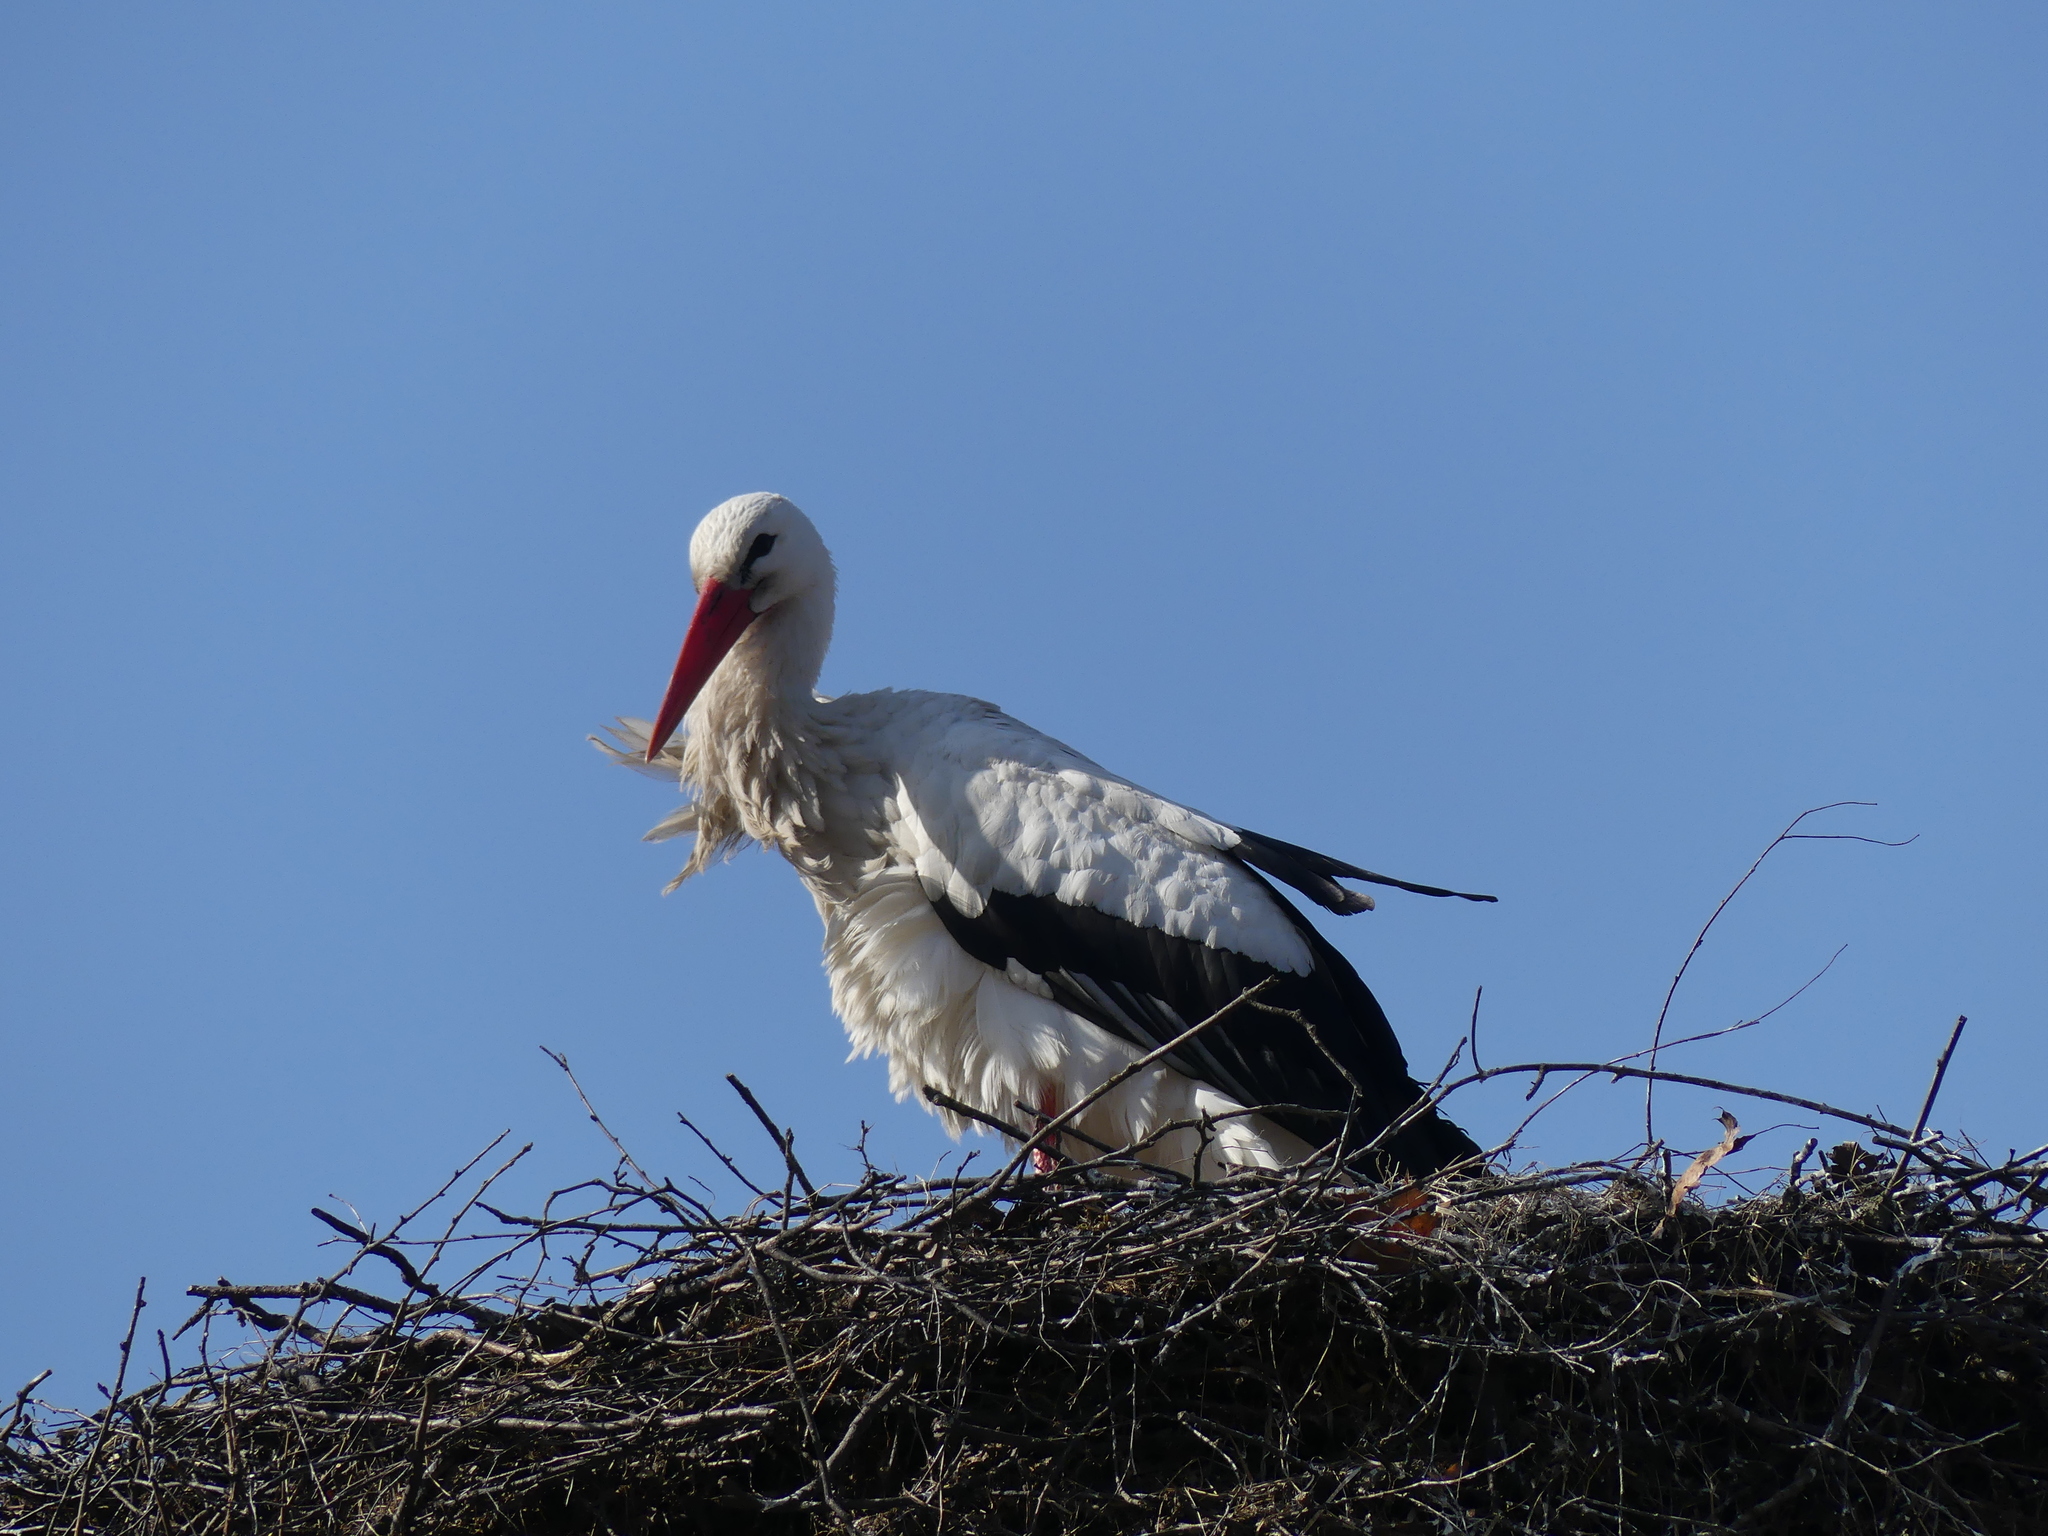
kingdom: Animalia
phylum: Chordata
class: Aves
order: Ciconiiformes
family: Ciconiidae
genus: Ciconia
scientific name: Ciconia ciconia
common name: White stork
